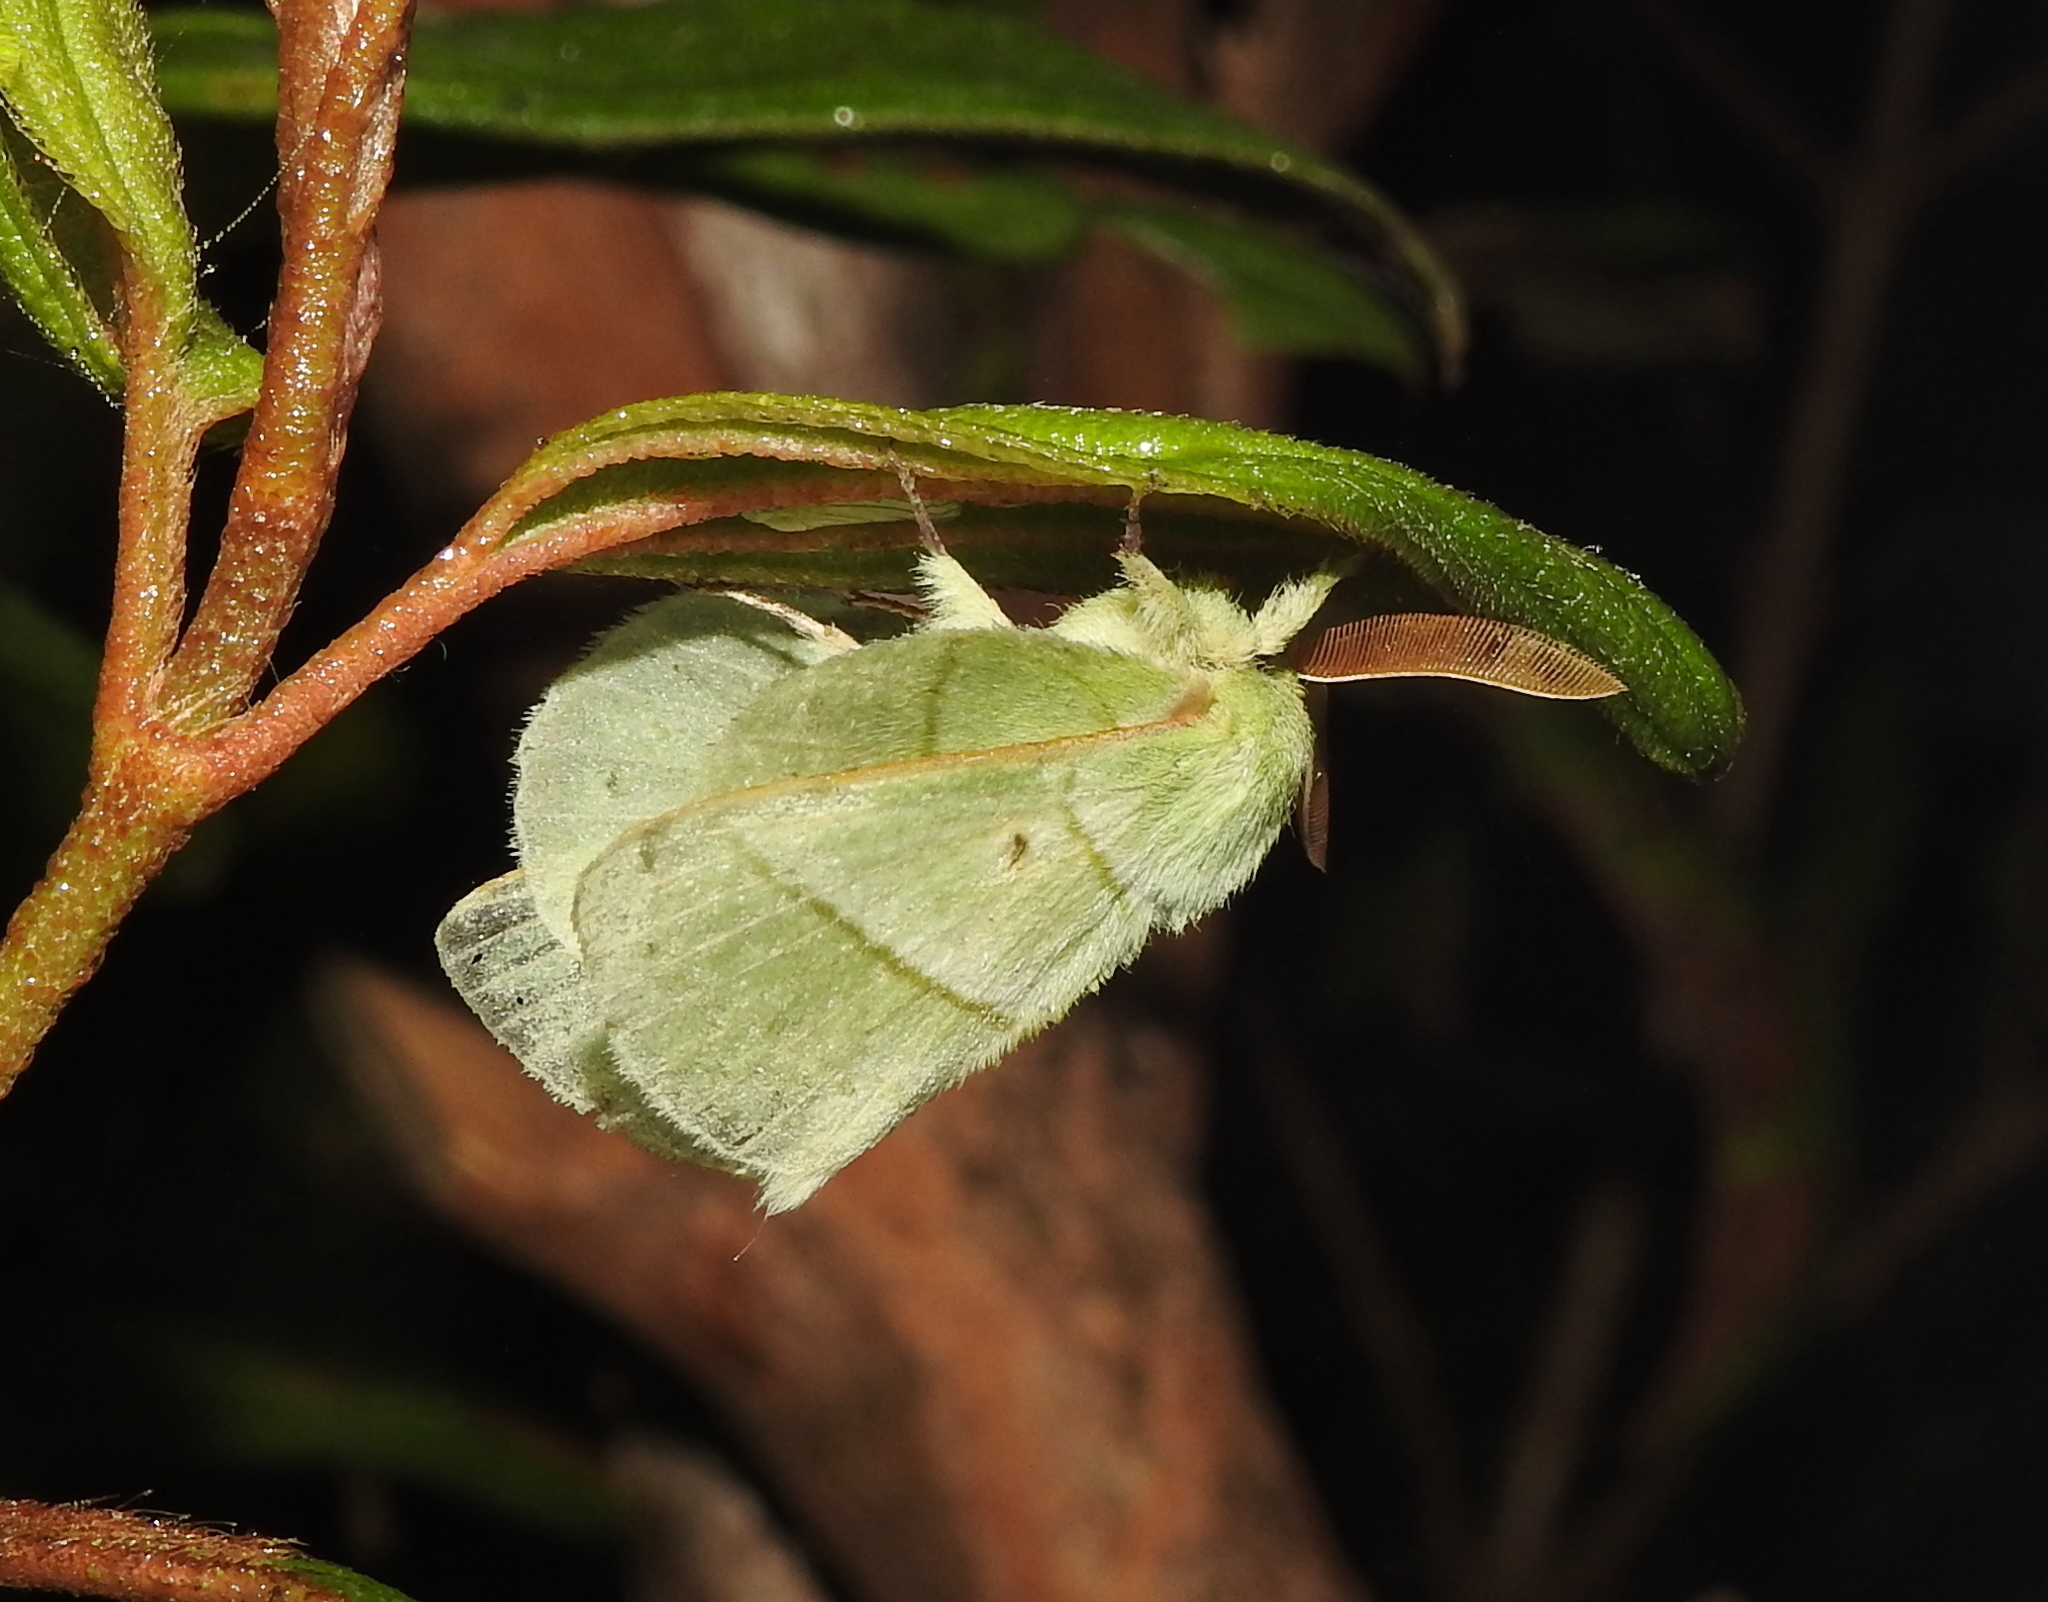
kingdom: Animalia
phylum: Arthropoda
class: Insecta
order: Lepidoptera
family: Lasiocampidae
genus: Trabala
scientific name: Trabala vishnou
